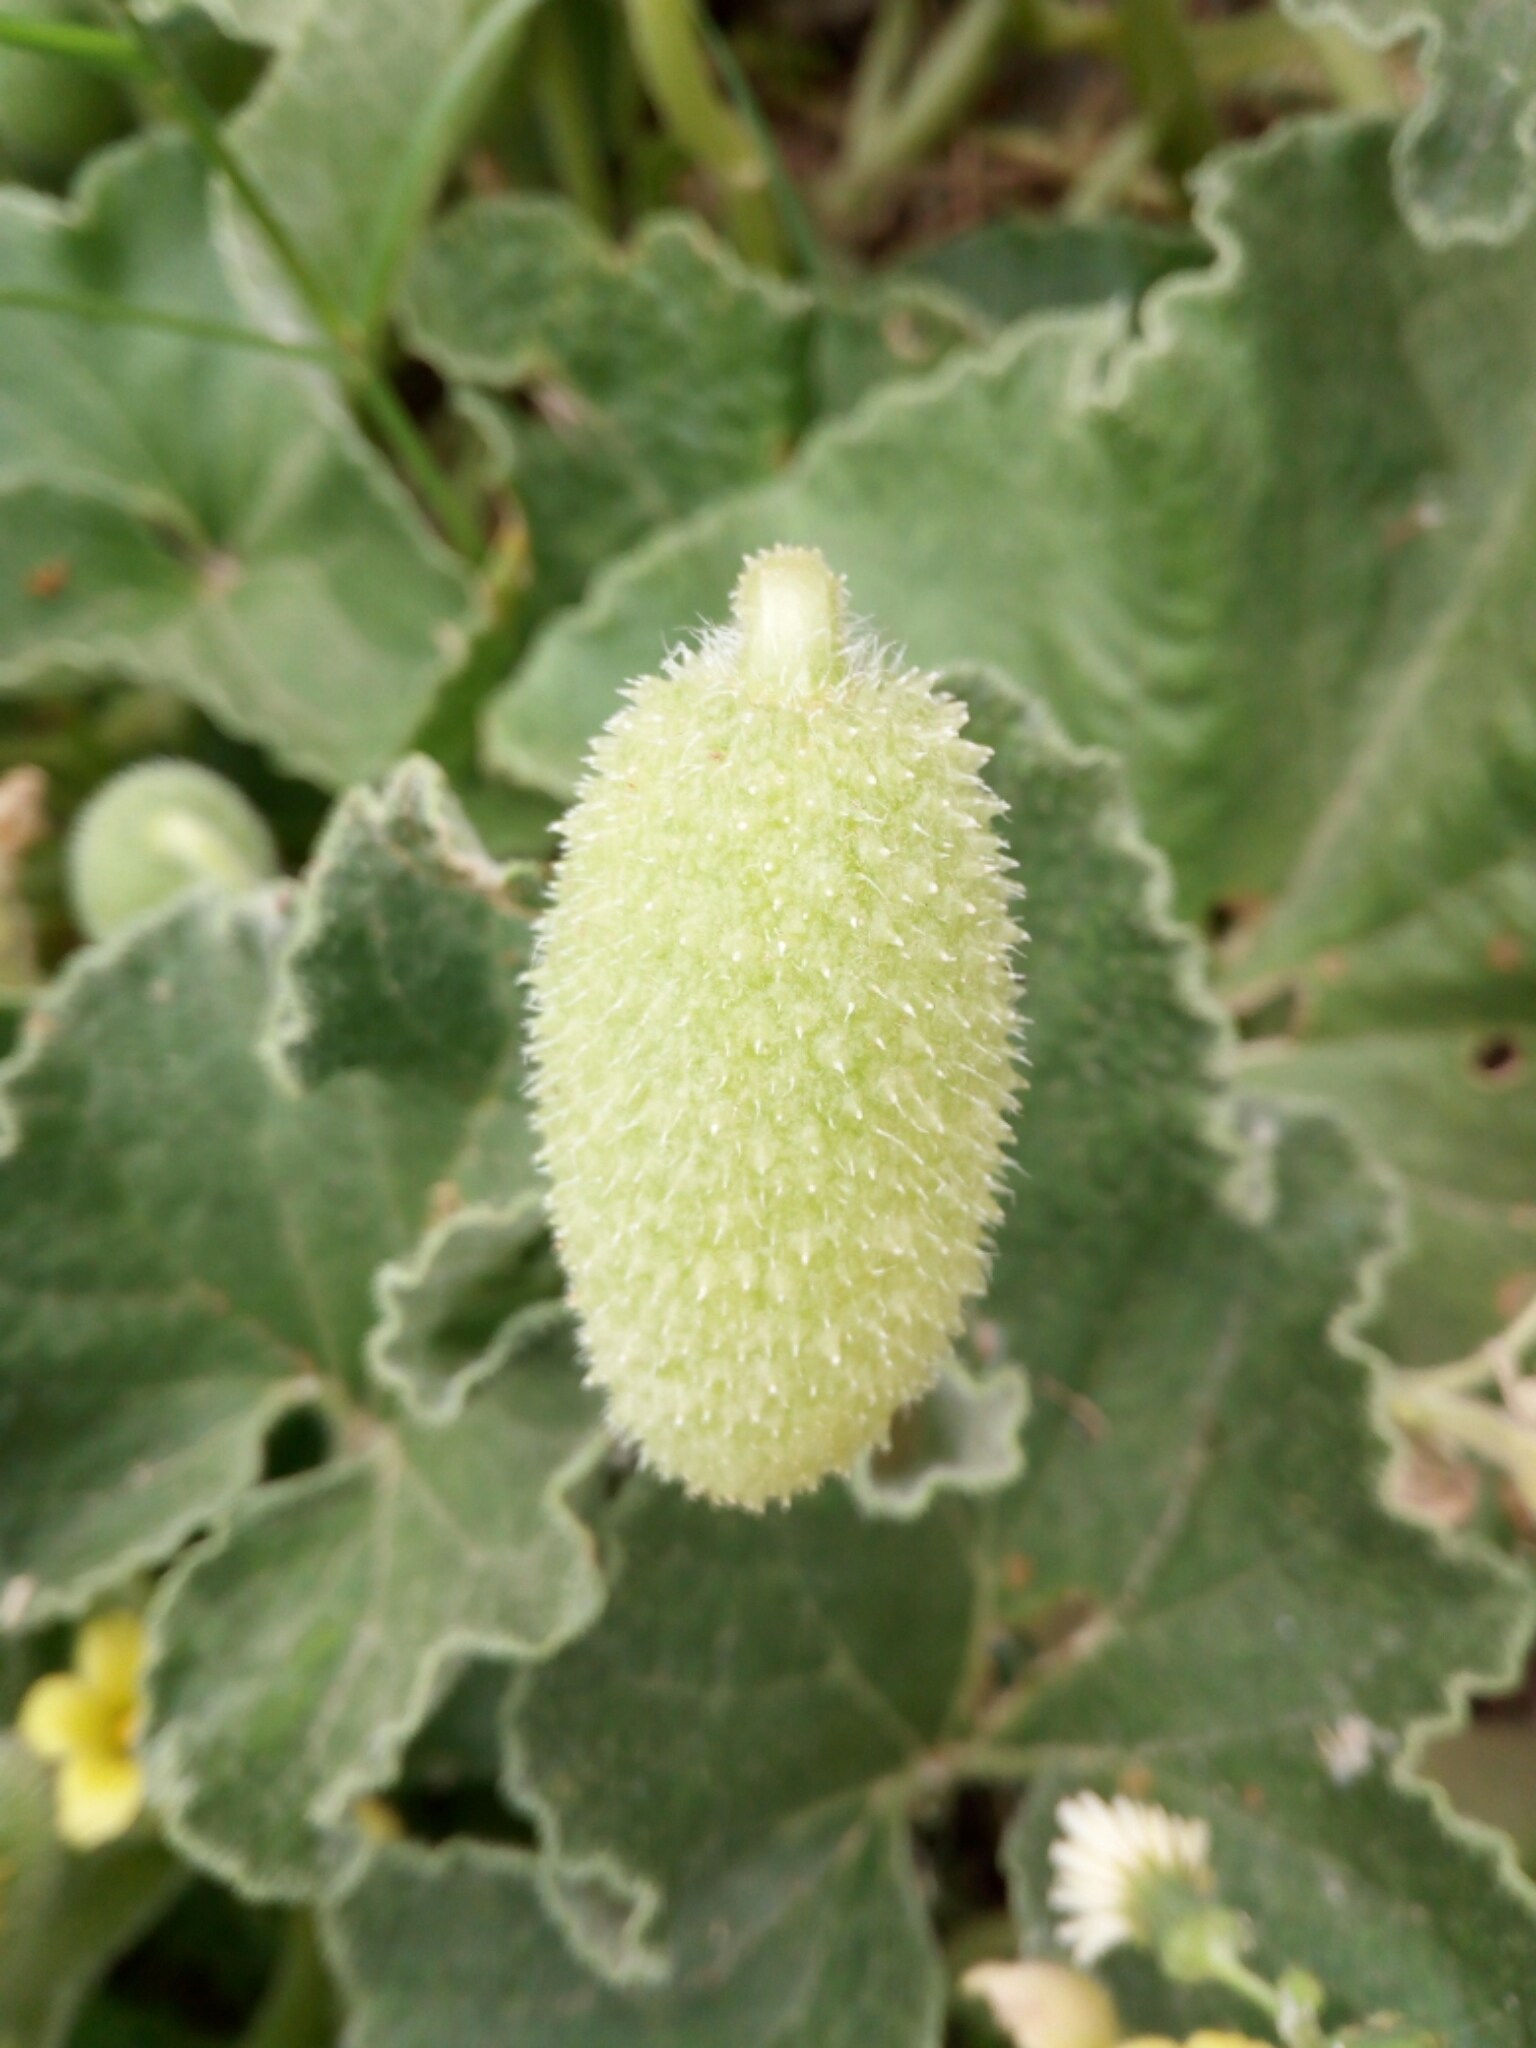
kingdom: Plantae
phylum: Tracheophyta
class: Magnoliopsida
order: Cucurbitales
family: Cucurbitaceae
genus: Ecballium
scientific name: Ecballium elaterium
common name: Squirting cucumber
